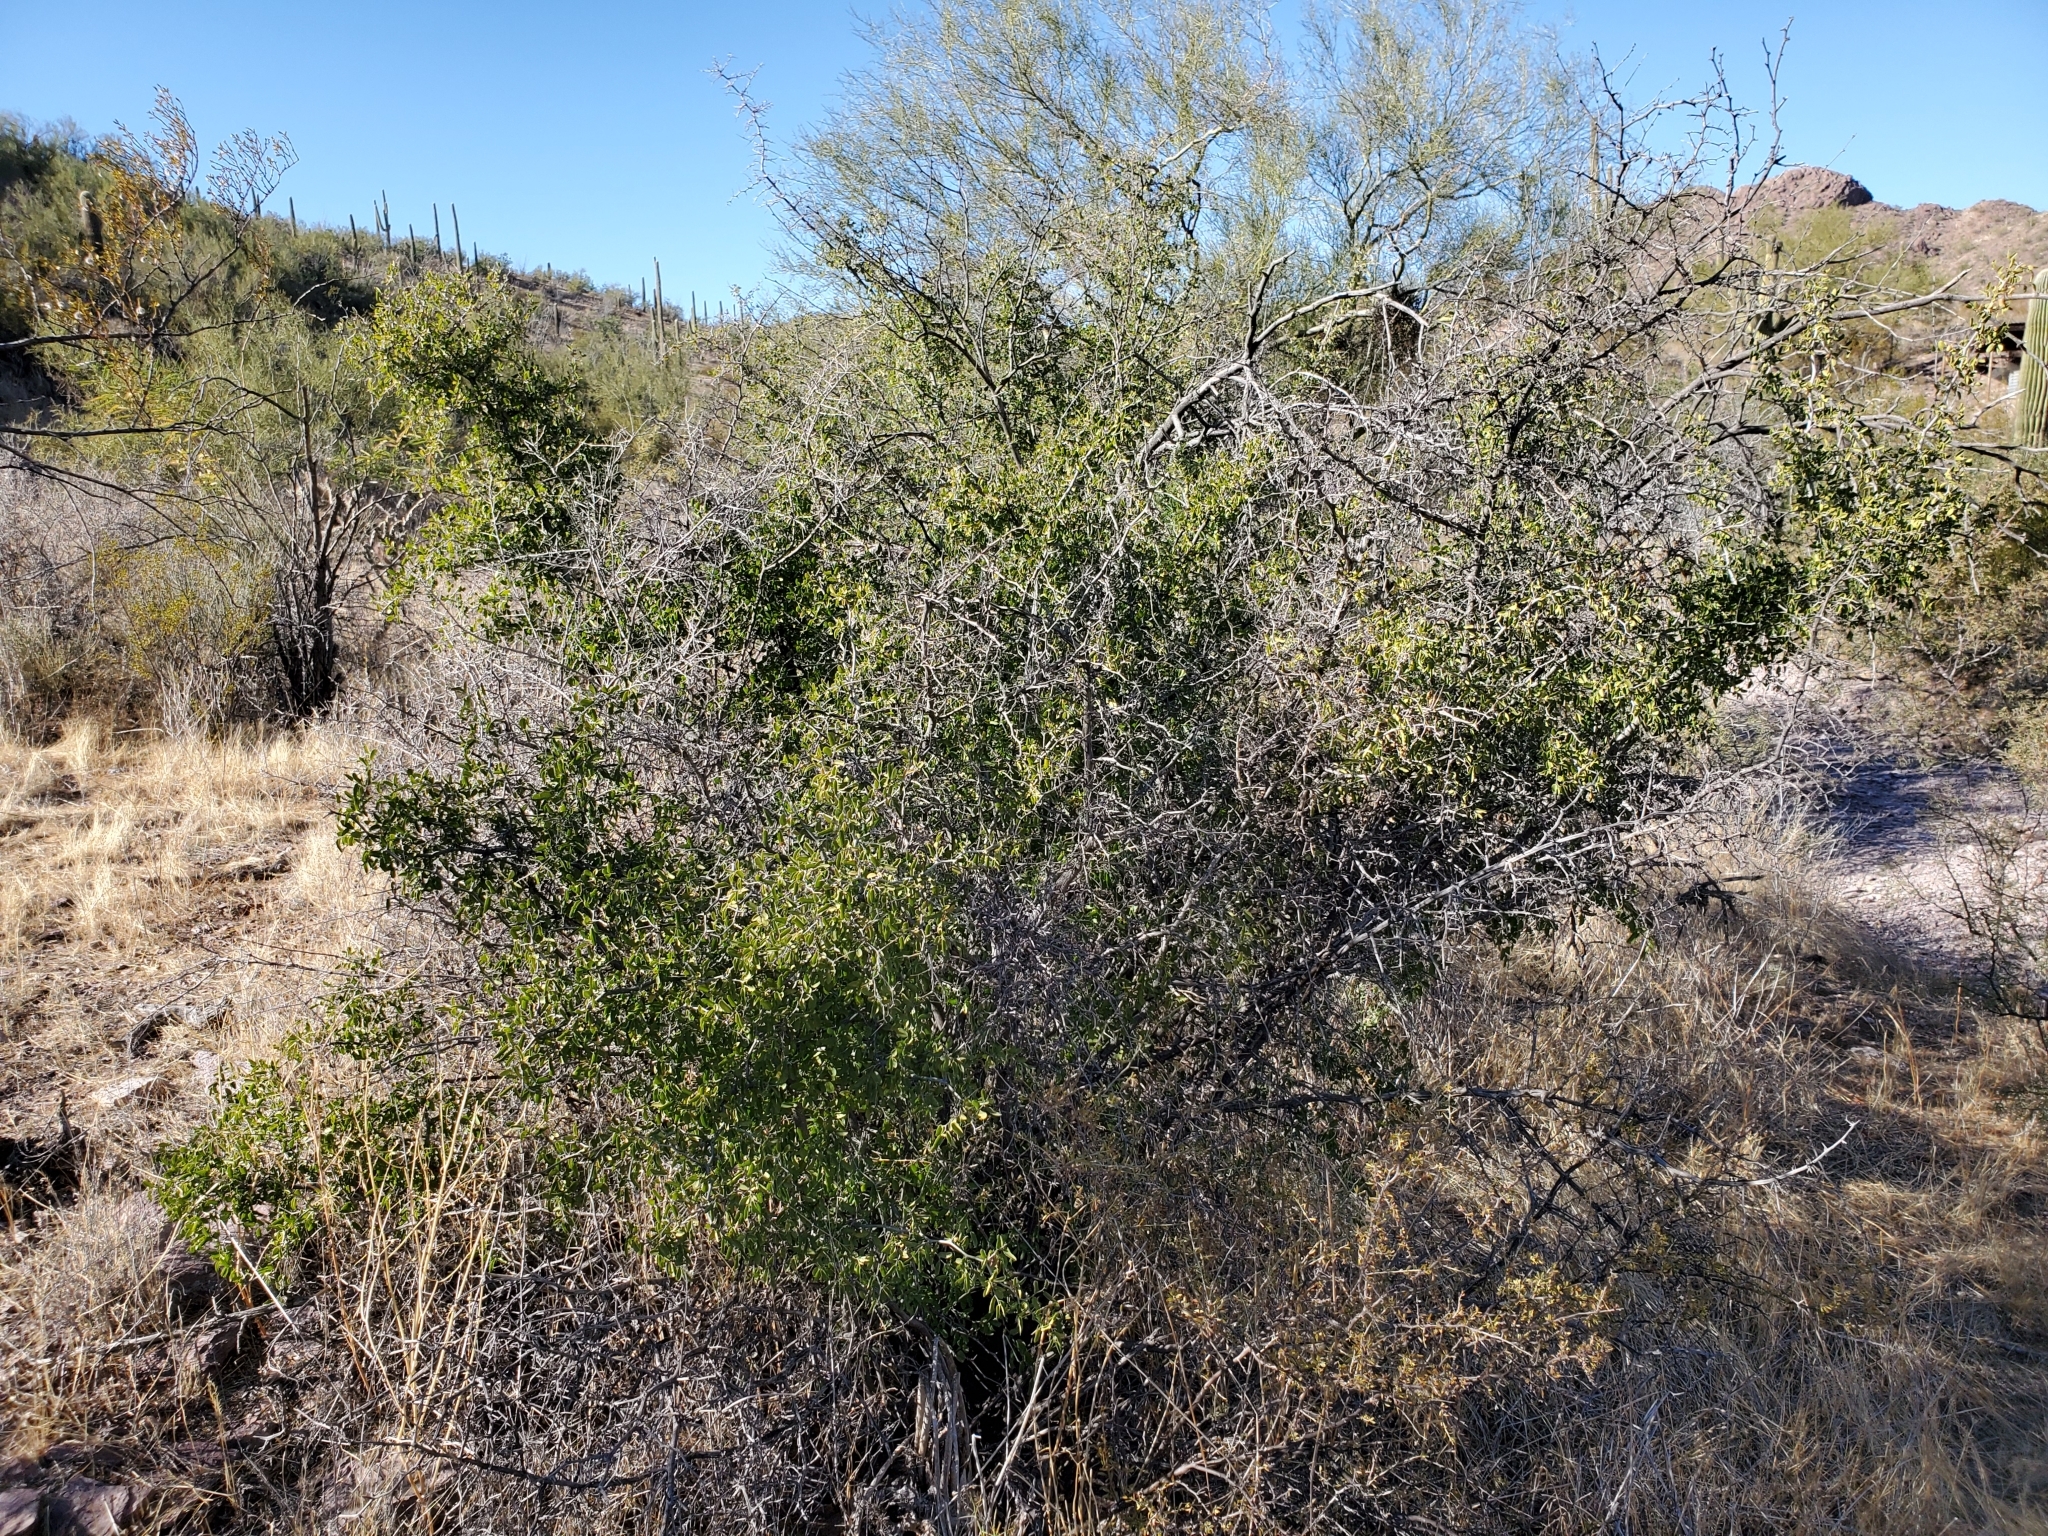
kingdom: Plantae
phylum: Tracheophyta
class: Magnoliopsida
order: Rosales
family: Rhamnaceae
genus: Colubrina
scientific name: Colubrina californica
